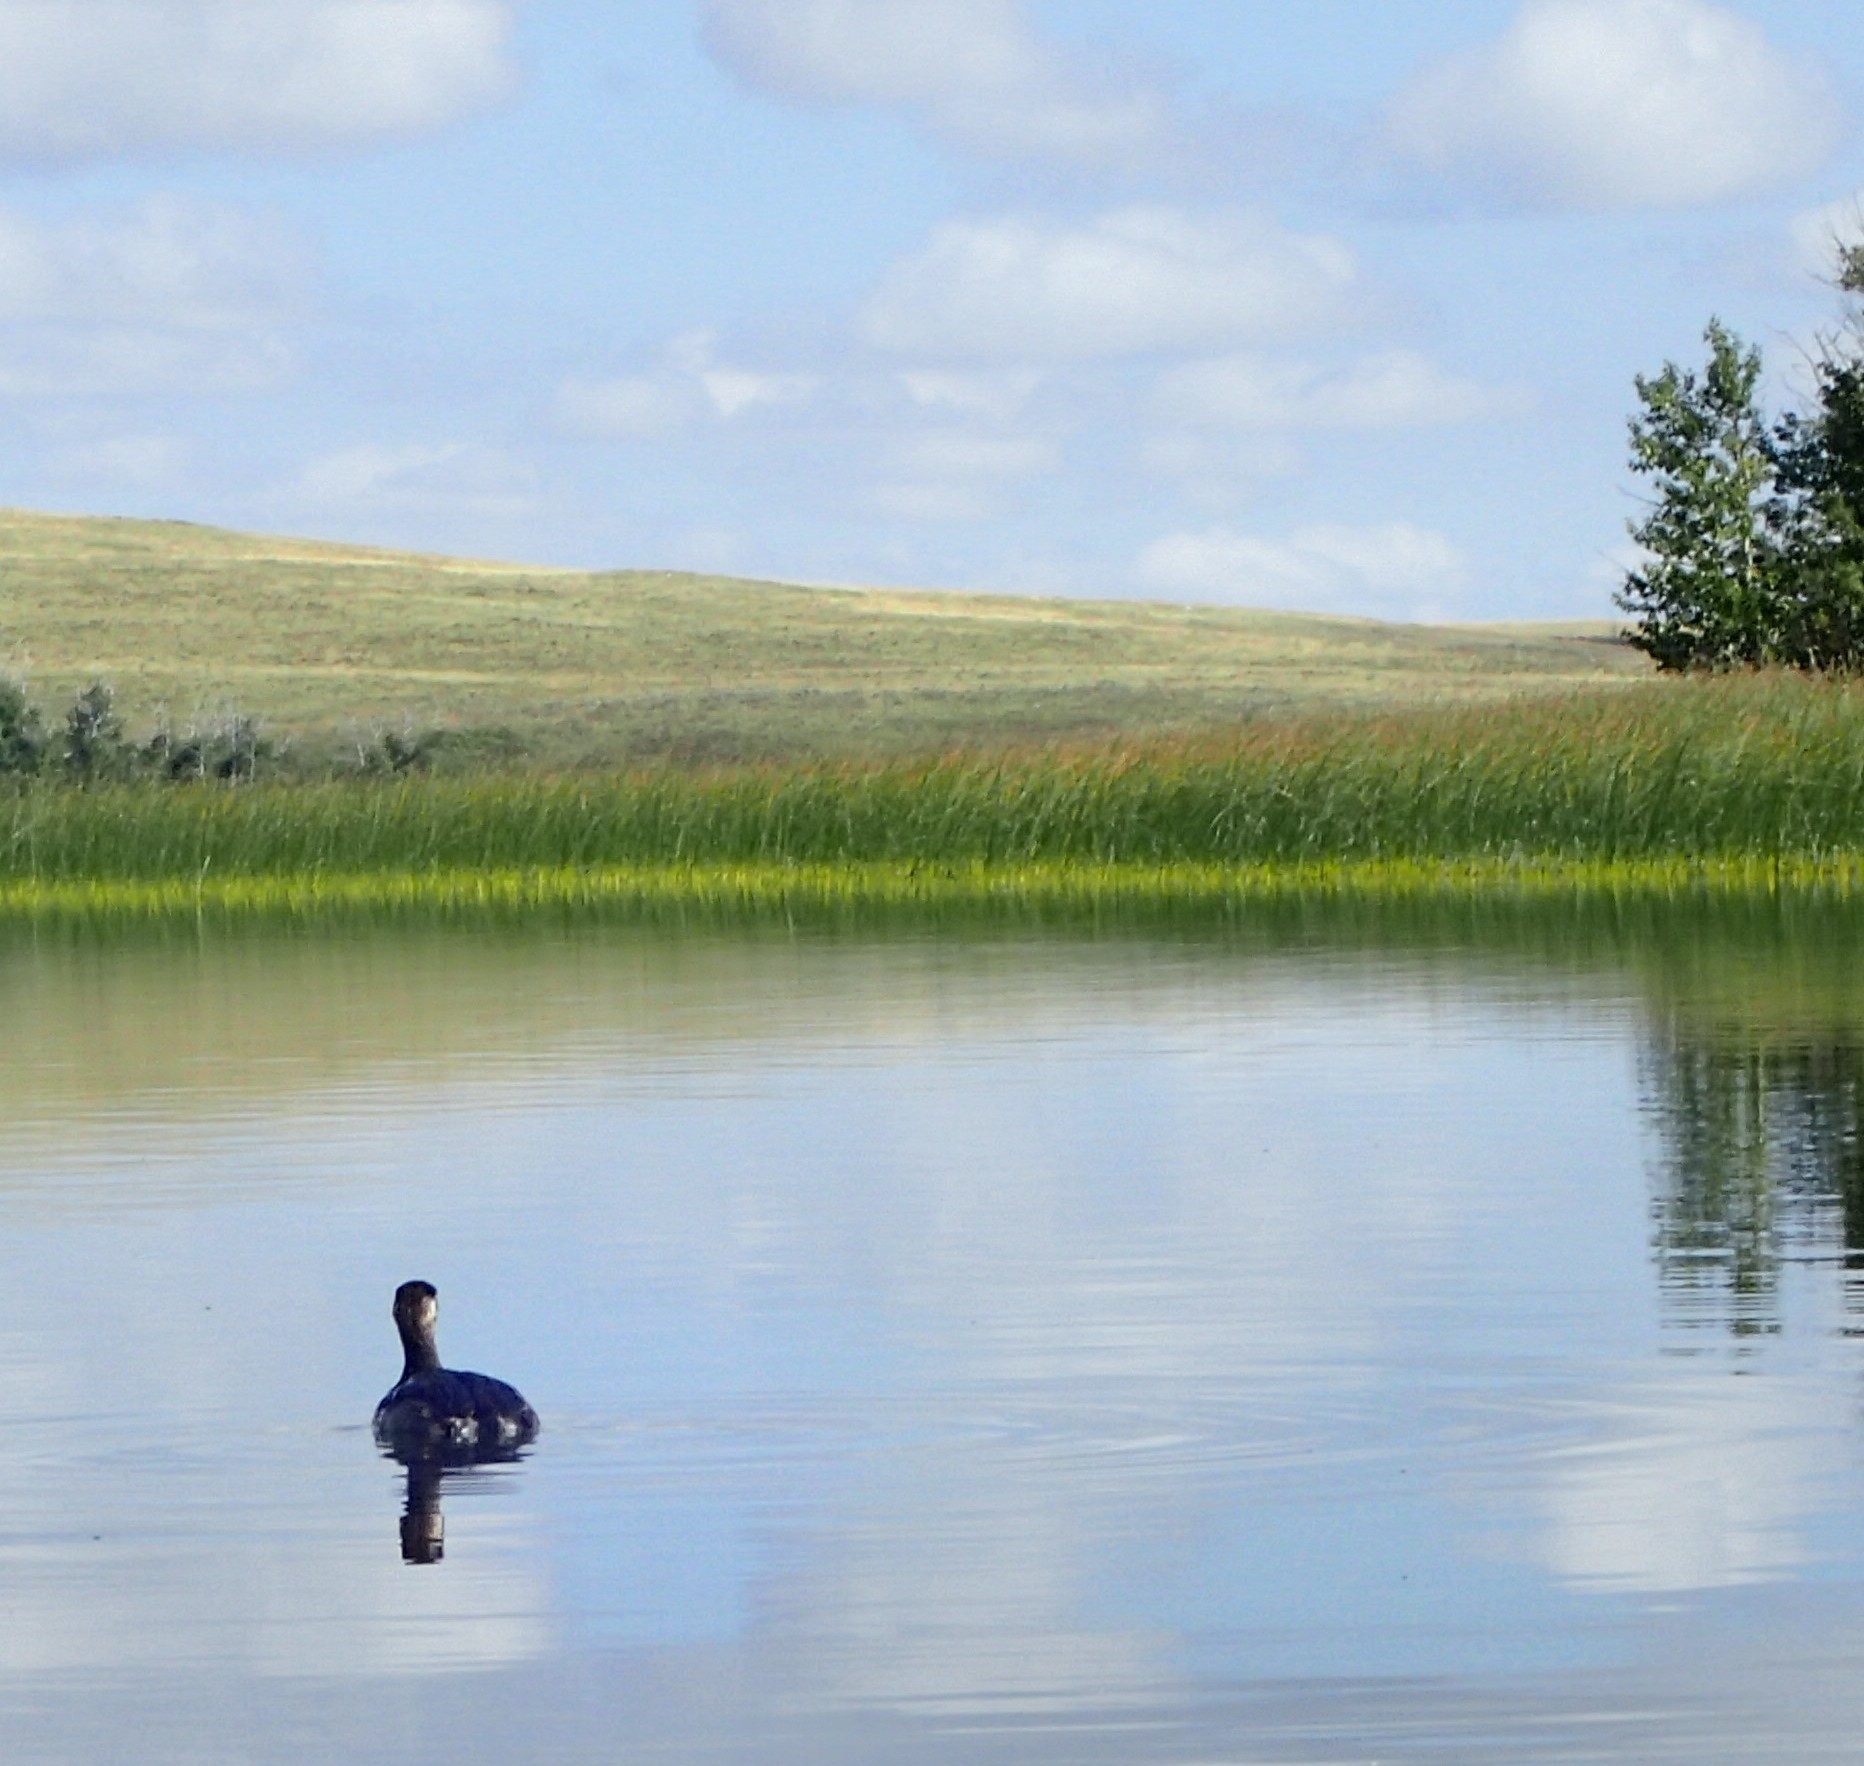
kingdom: Animalia
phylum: Chordata
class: Aves
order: Podicipediformes
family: Podicipedidae
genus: Podiceps
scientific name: Podiceps grisegena
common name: Red-necked grebe
